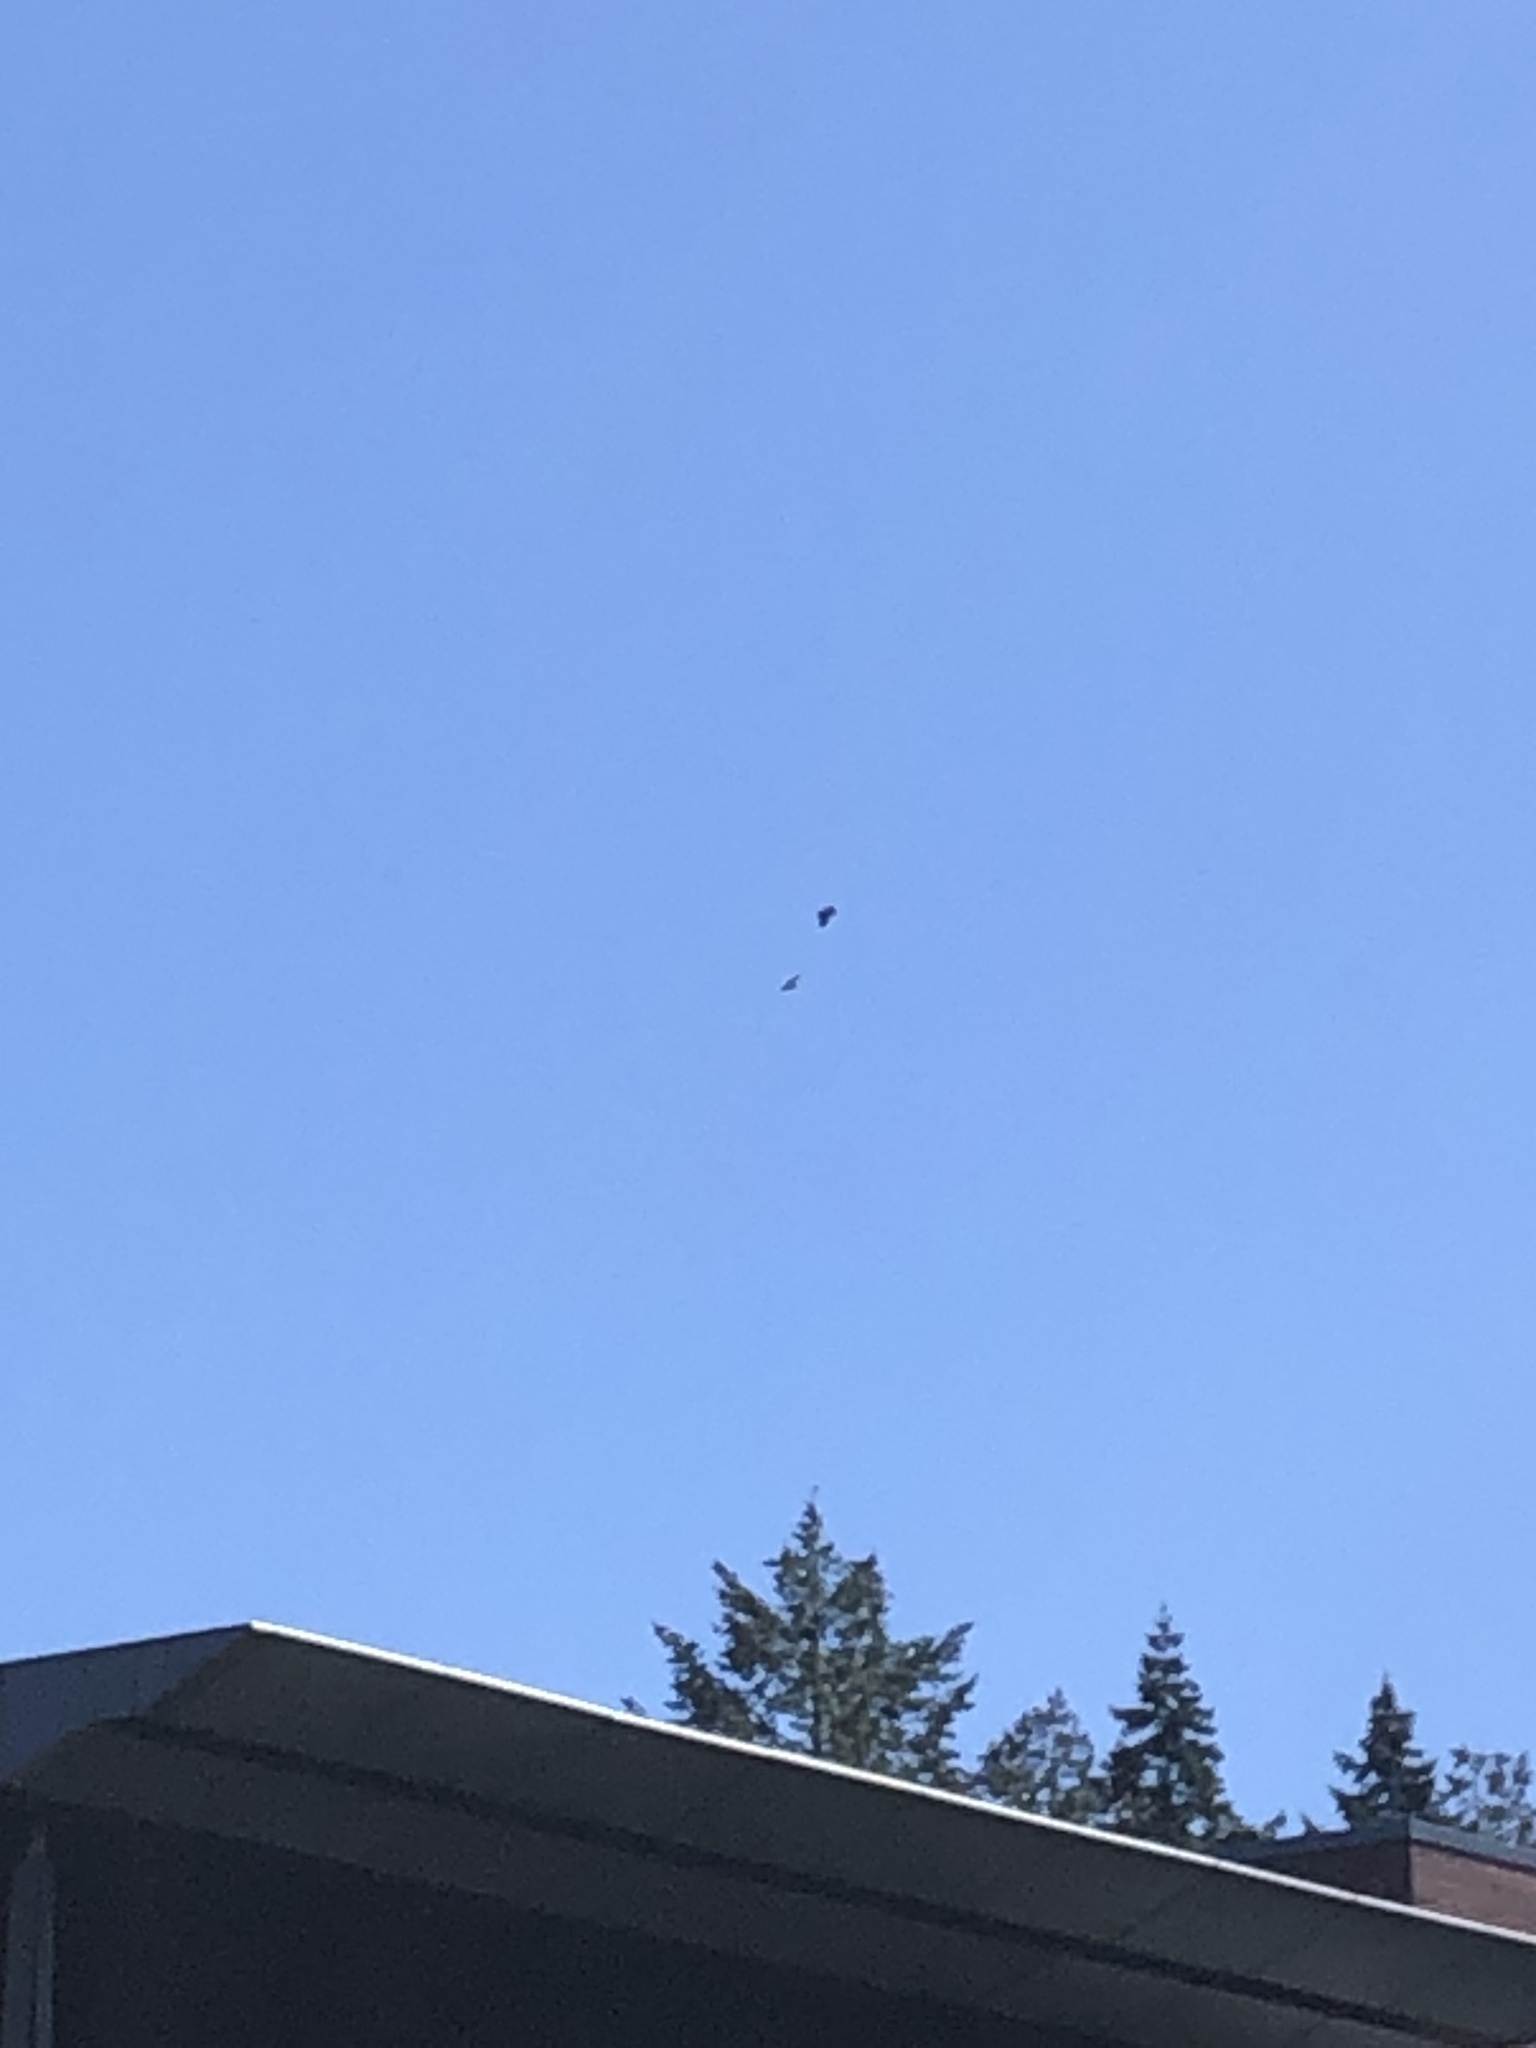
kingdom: Animalia
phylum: Chordata
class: Aves
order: Accipitriformes
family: Accipitridae
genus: Haliaeetus
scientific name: Haliaeetus leucocephalus
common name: Bald eagle
